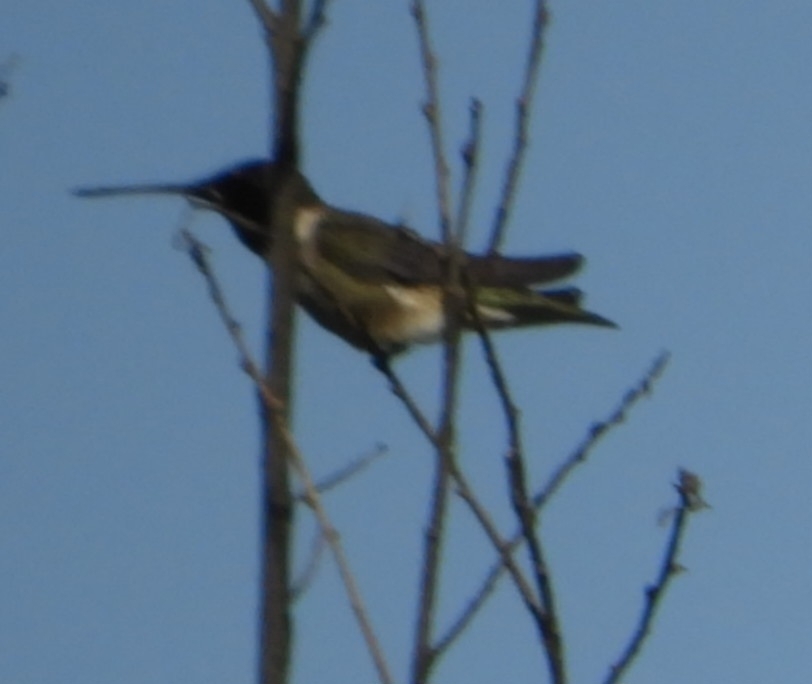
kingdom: Animalia
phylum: Chordata
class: Aves
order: Apodiformes
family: Trochilidae
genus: Archilochus
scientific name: Archilochus alexandri
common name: Black-chinned hummingbird
